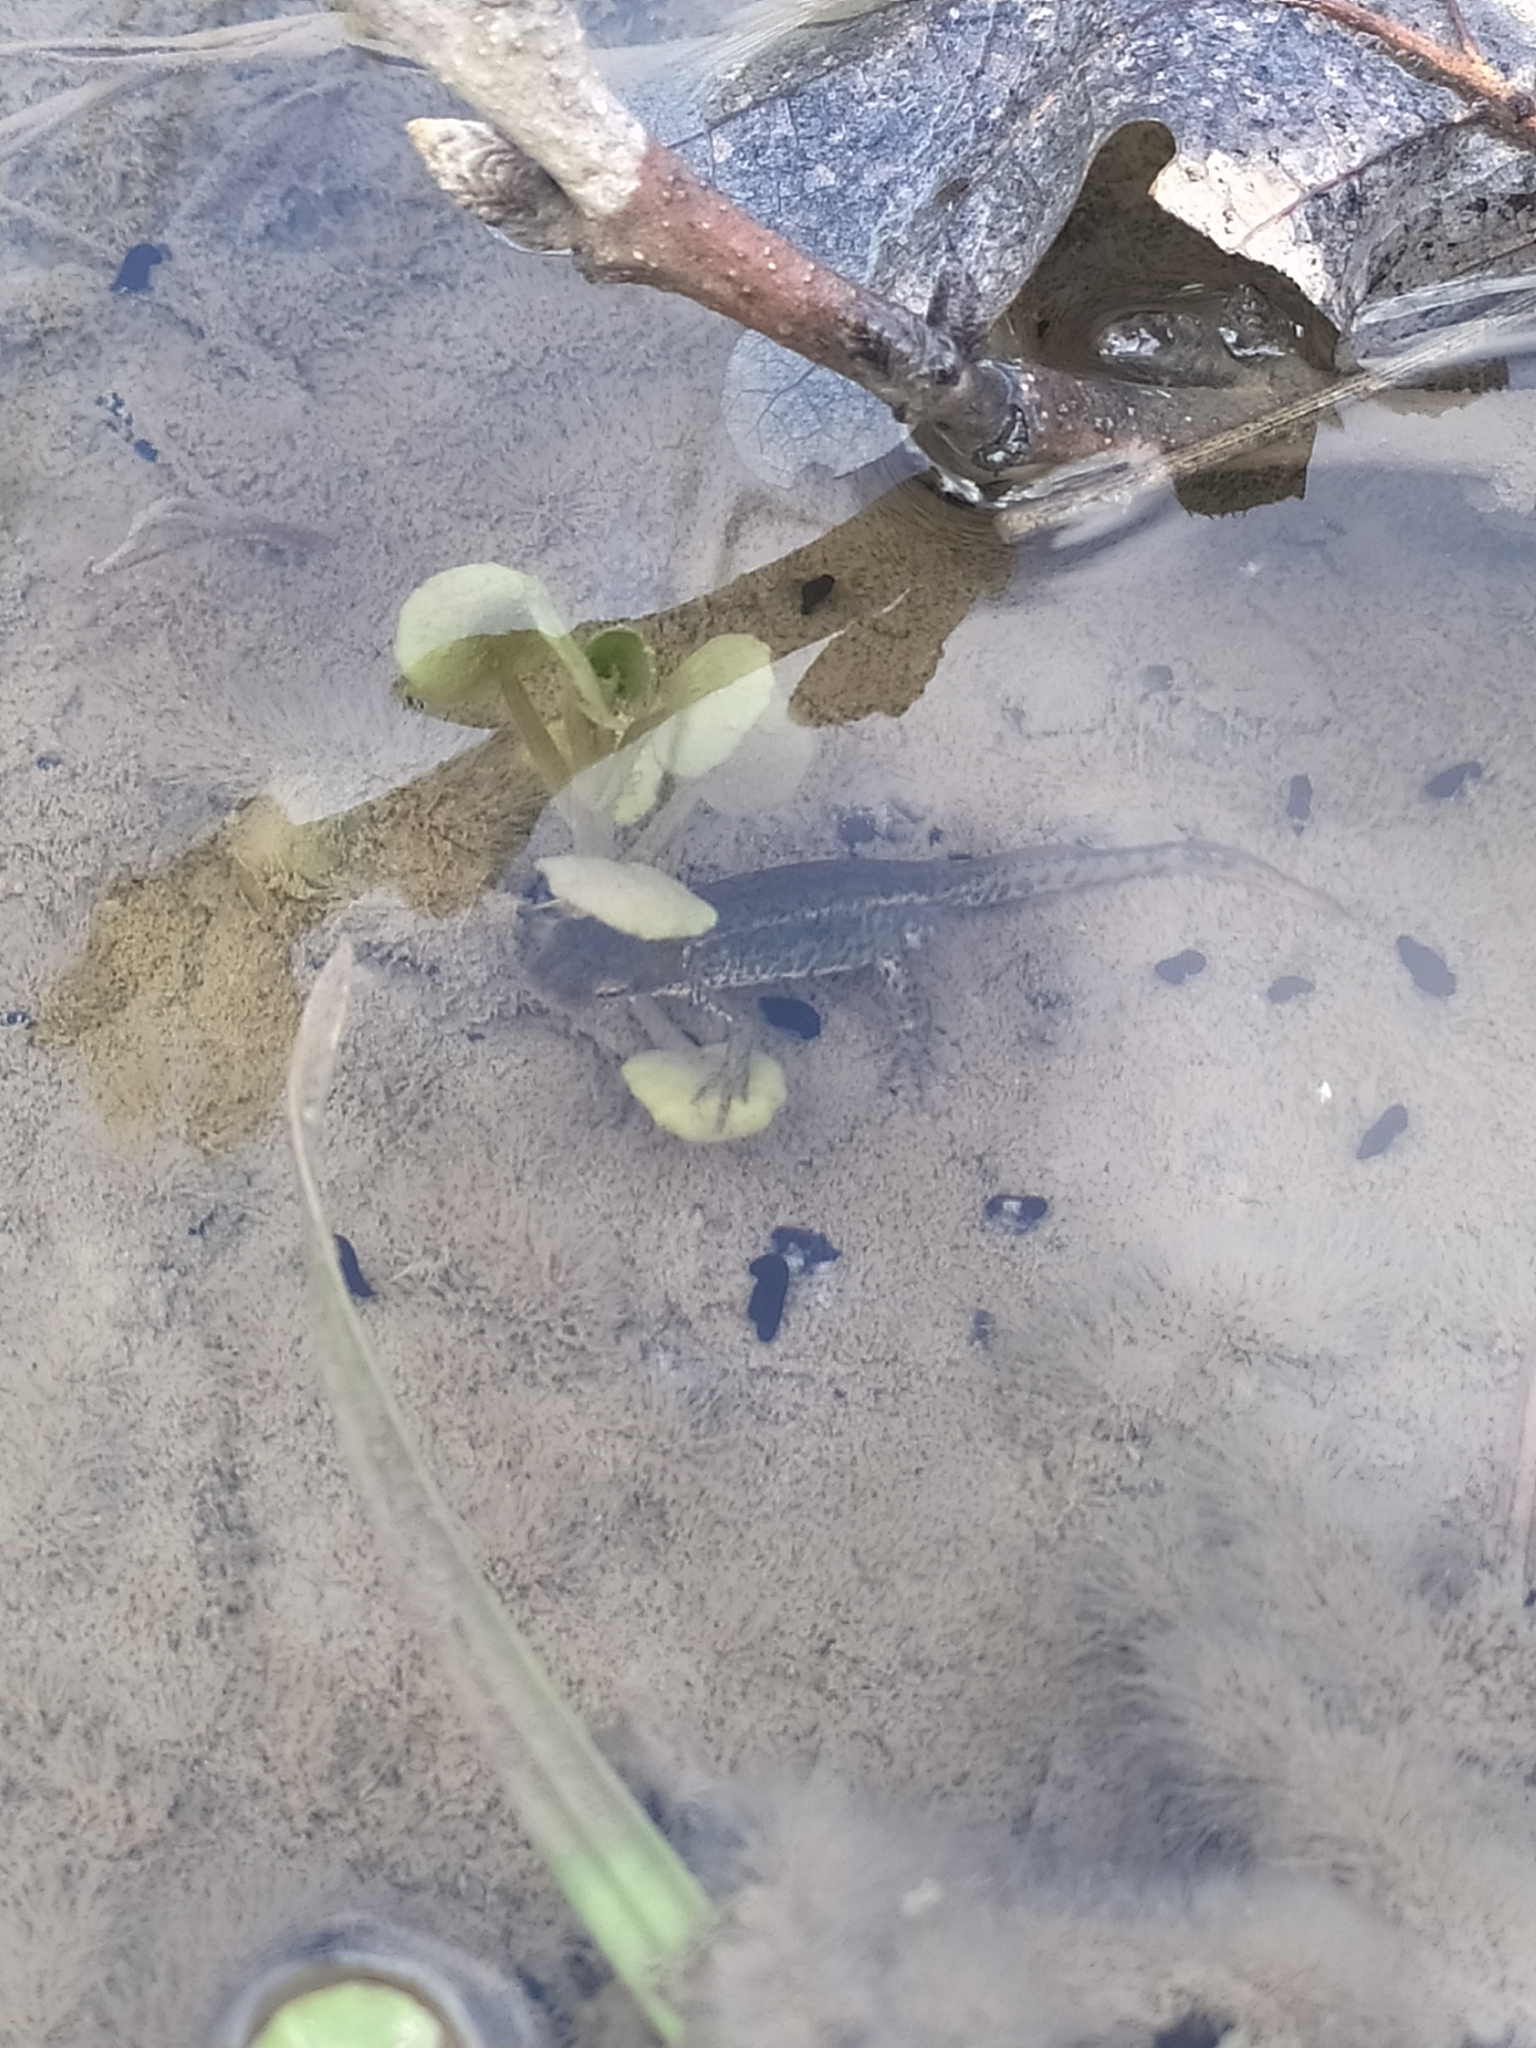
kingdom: Animalia
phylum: Chordata
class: Amphibia
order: Caudata
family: Salamandridae
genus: Lissotriton
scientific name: Lissotriton italicus
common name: Italian newt
